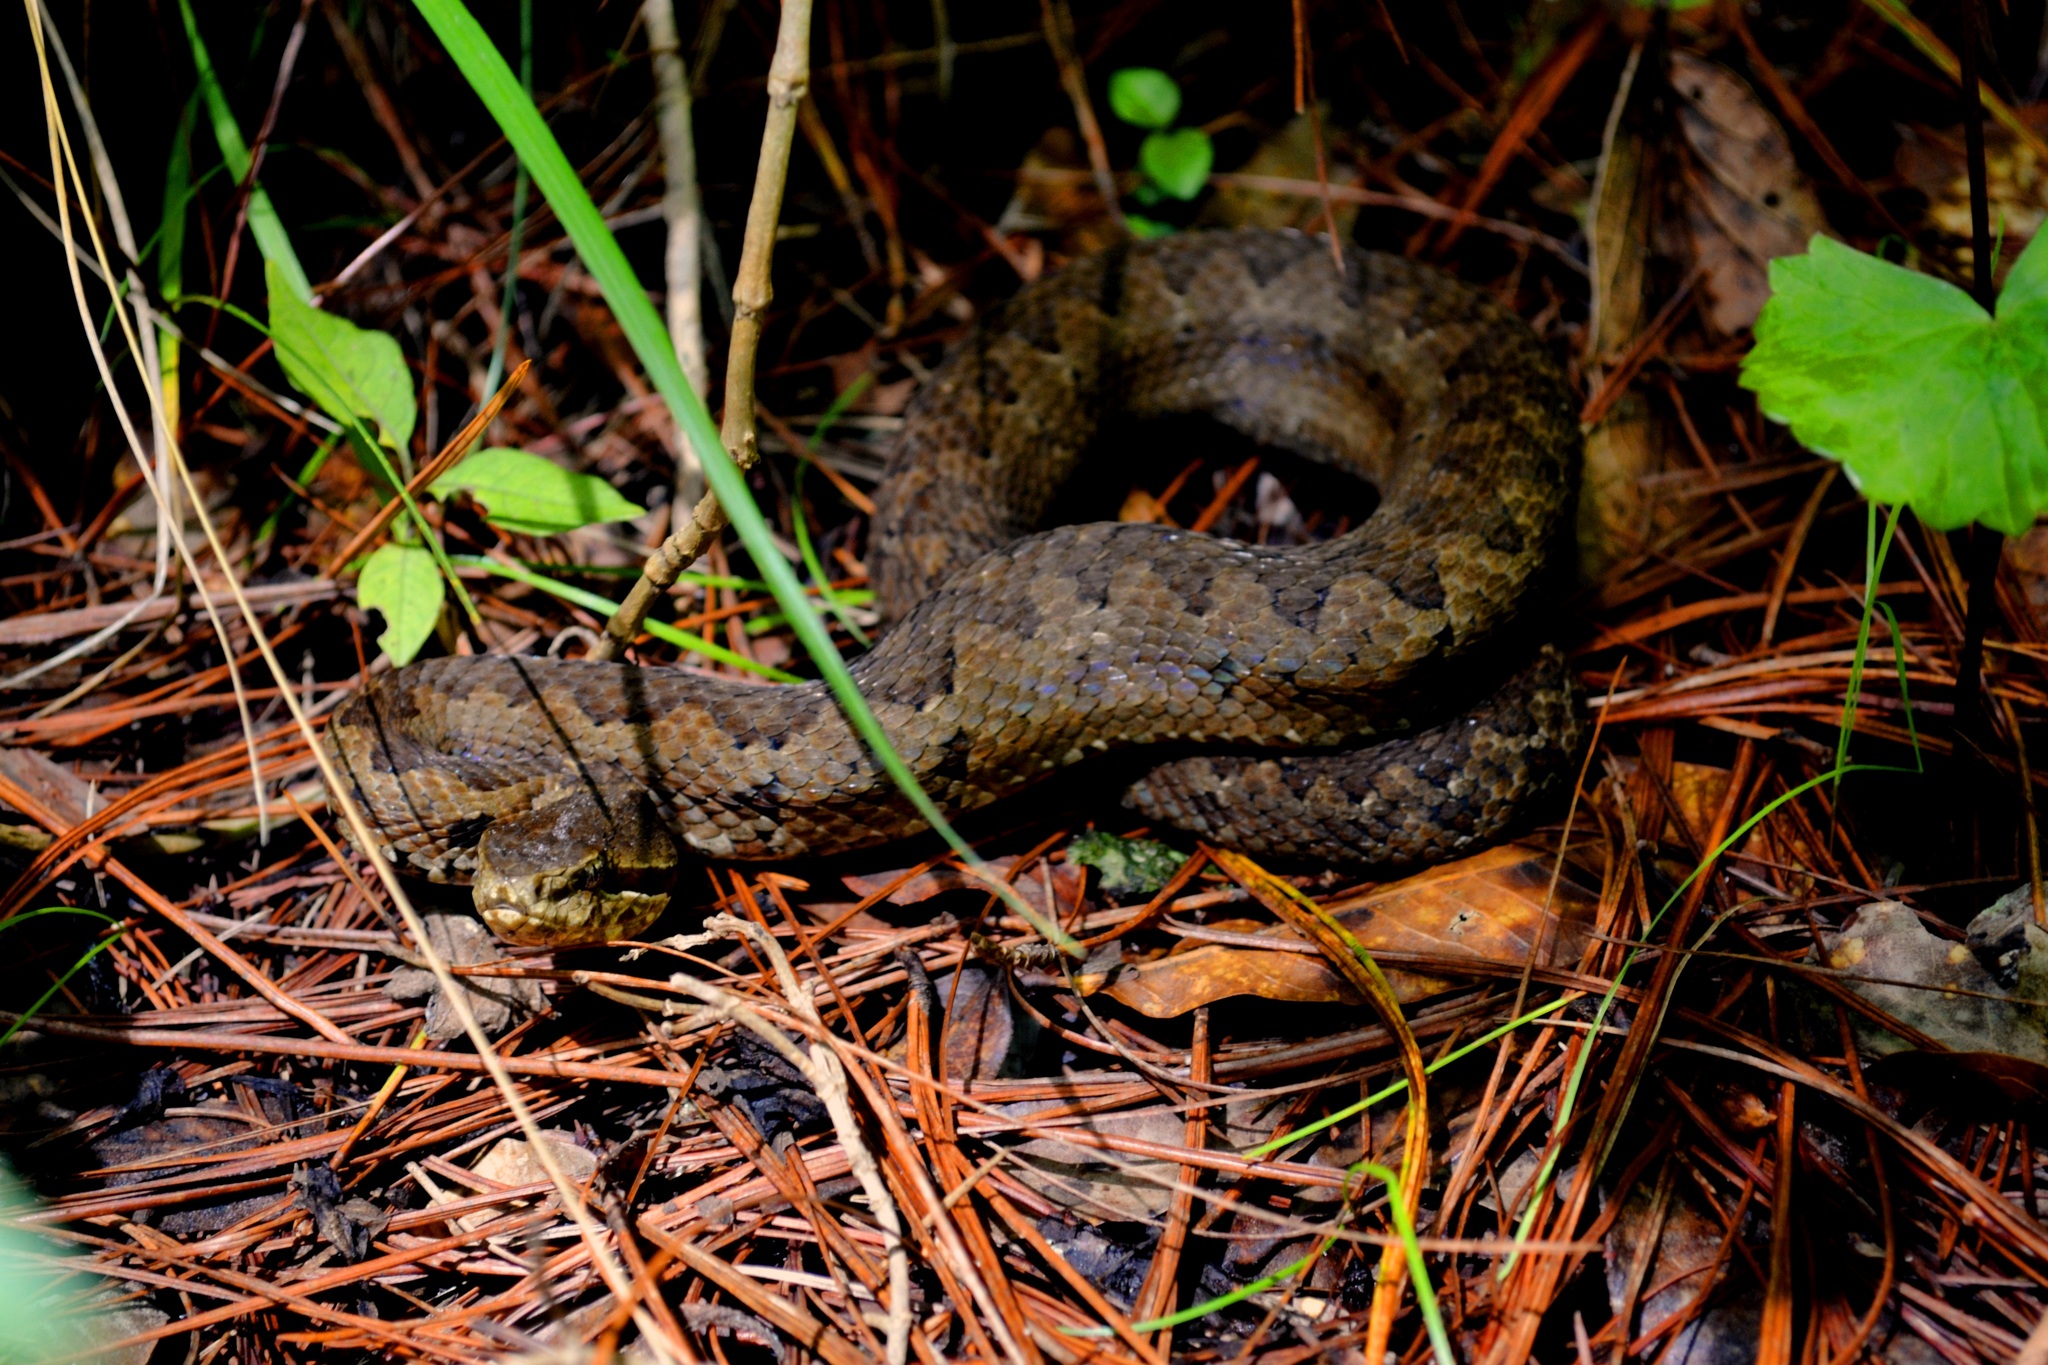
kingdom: Animalia
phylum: Chordata
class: Squamata
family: Viperidae
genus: Cerrophidion
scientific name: Cerrophidion tzotzilorum
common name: Tzotzil montane pit viper
